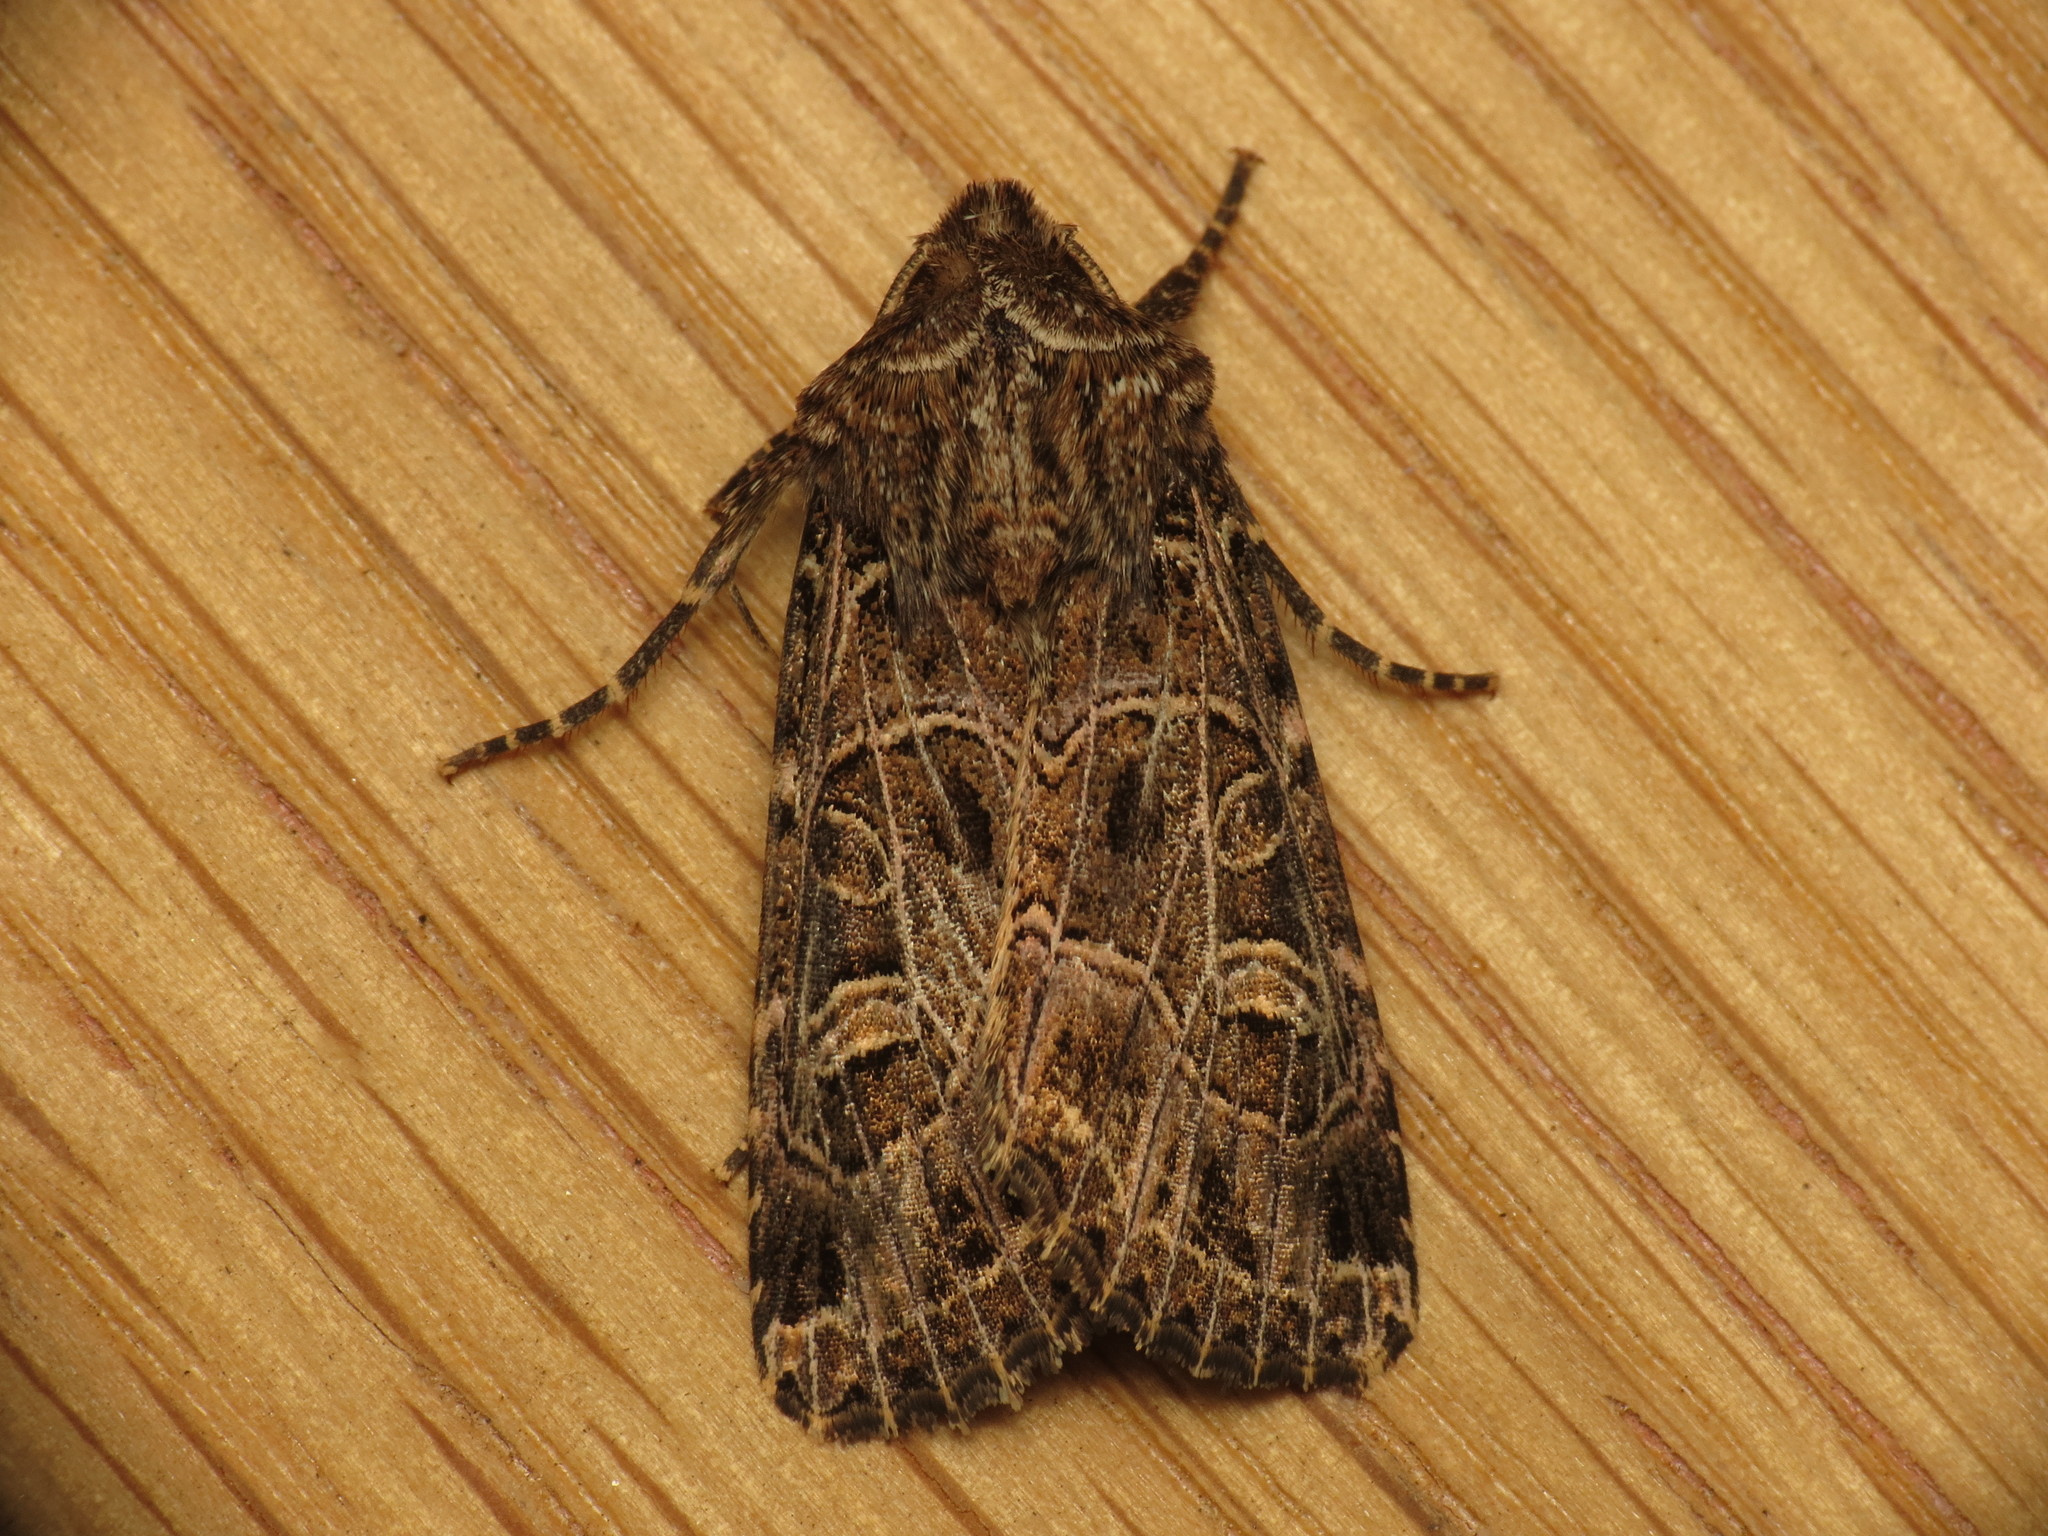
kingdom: Animalia
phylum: Arthropoda
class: Insecta
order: Lepidoptera
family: Noctuidae
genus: Sideridis
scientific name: Sideridis reticulata
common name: Bordered gothic
